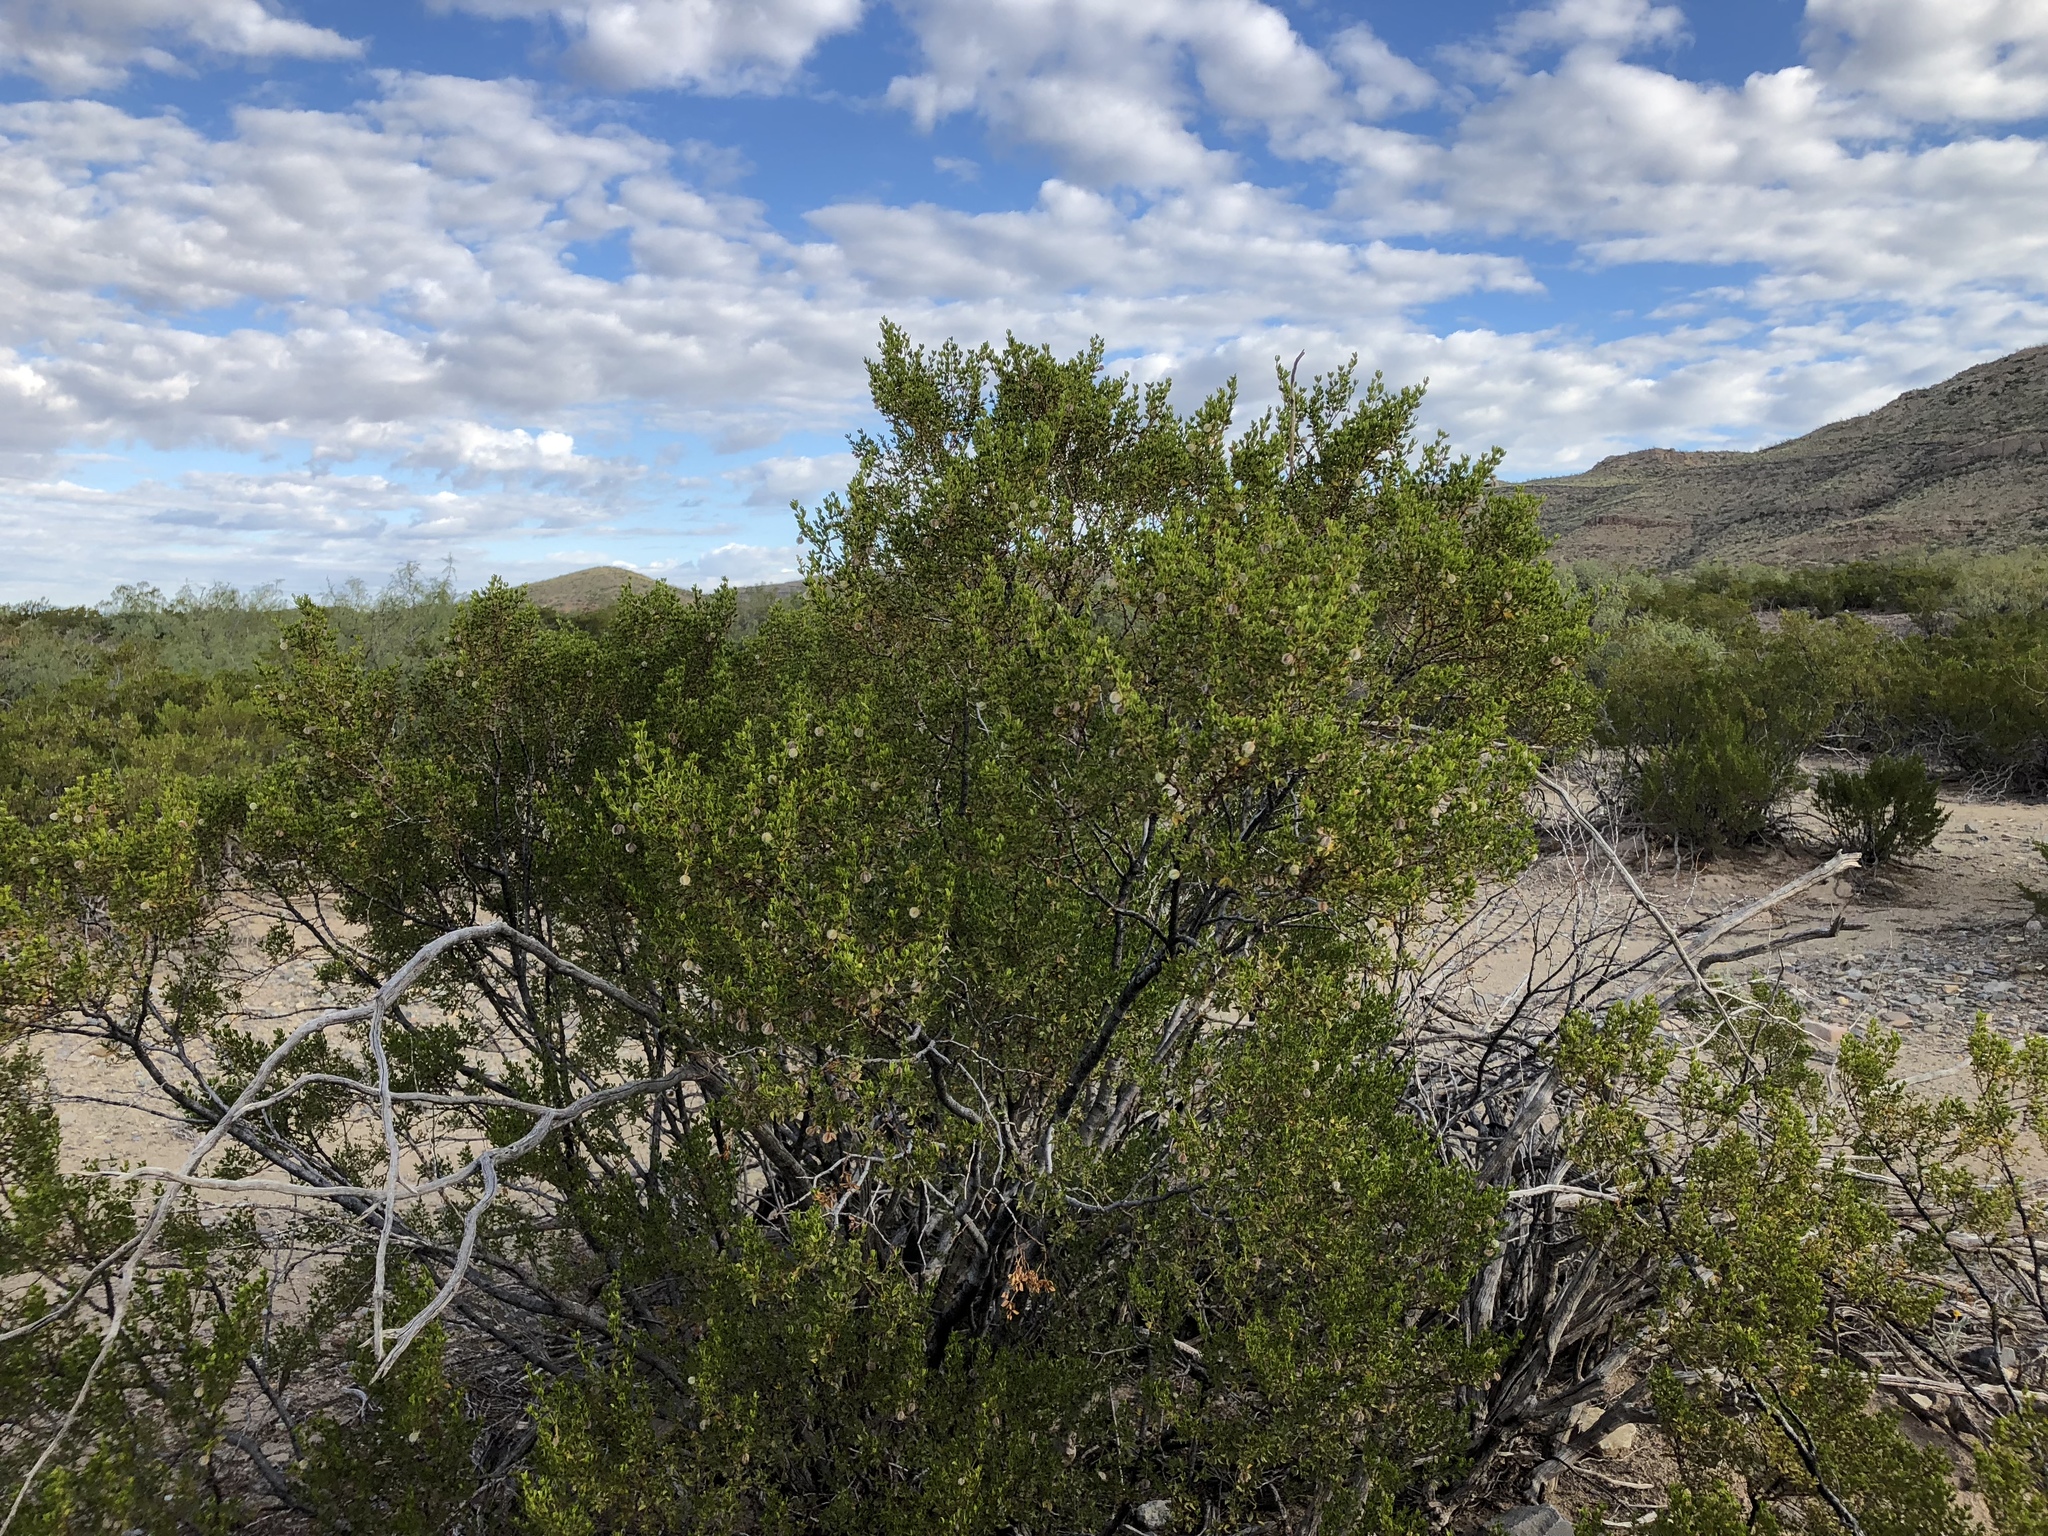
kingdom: Plantae
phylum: Tracheophyta
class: Magnoliopsida
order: Zygophyllales
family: Zygophyllaceae
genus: Larrea
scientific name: Larrea tridentata
